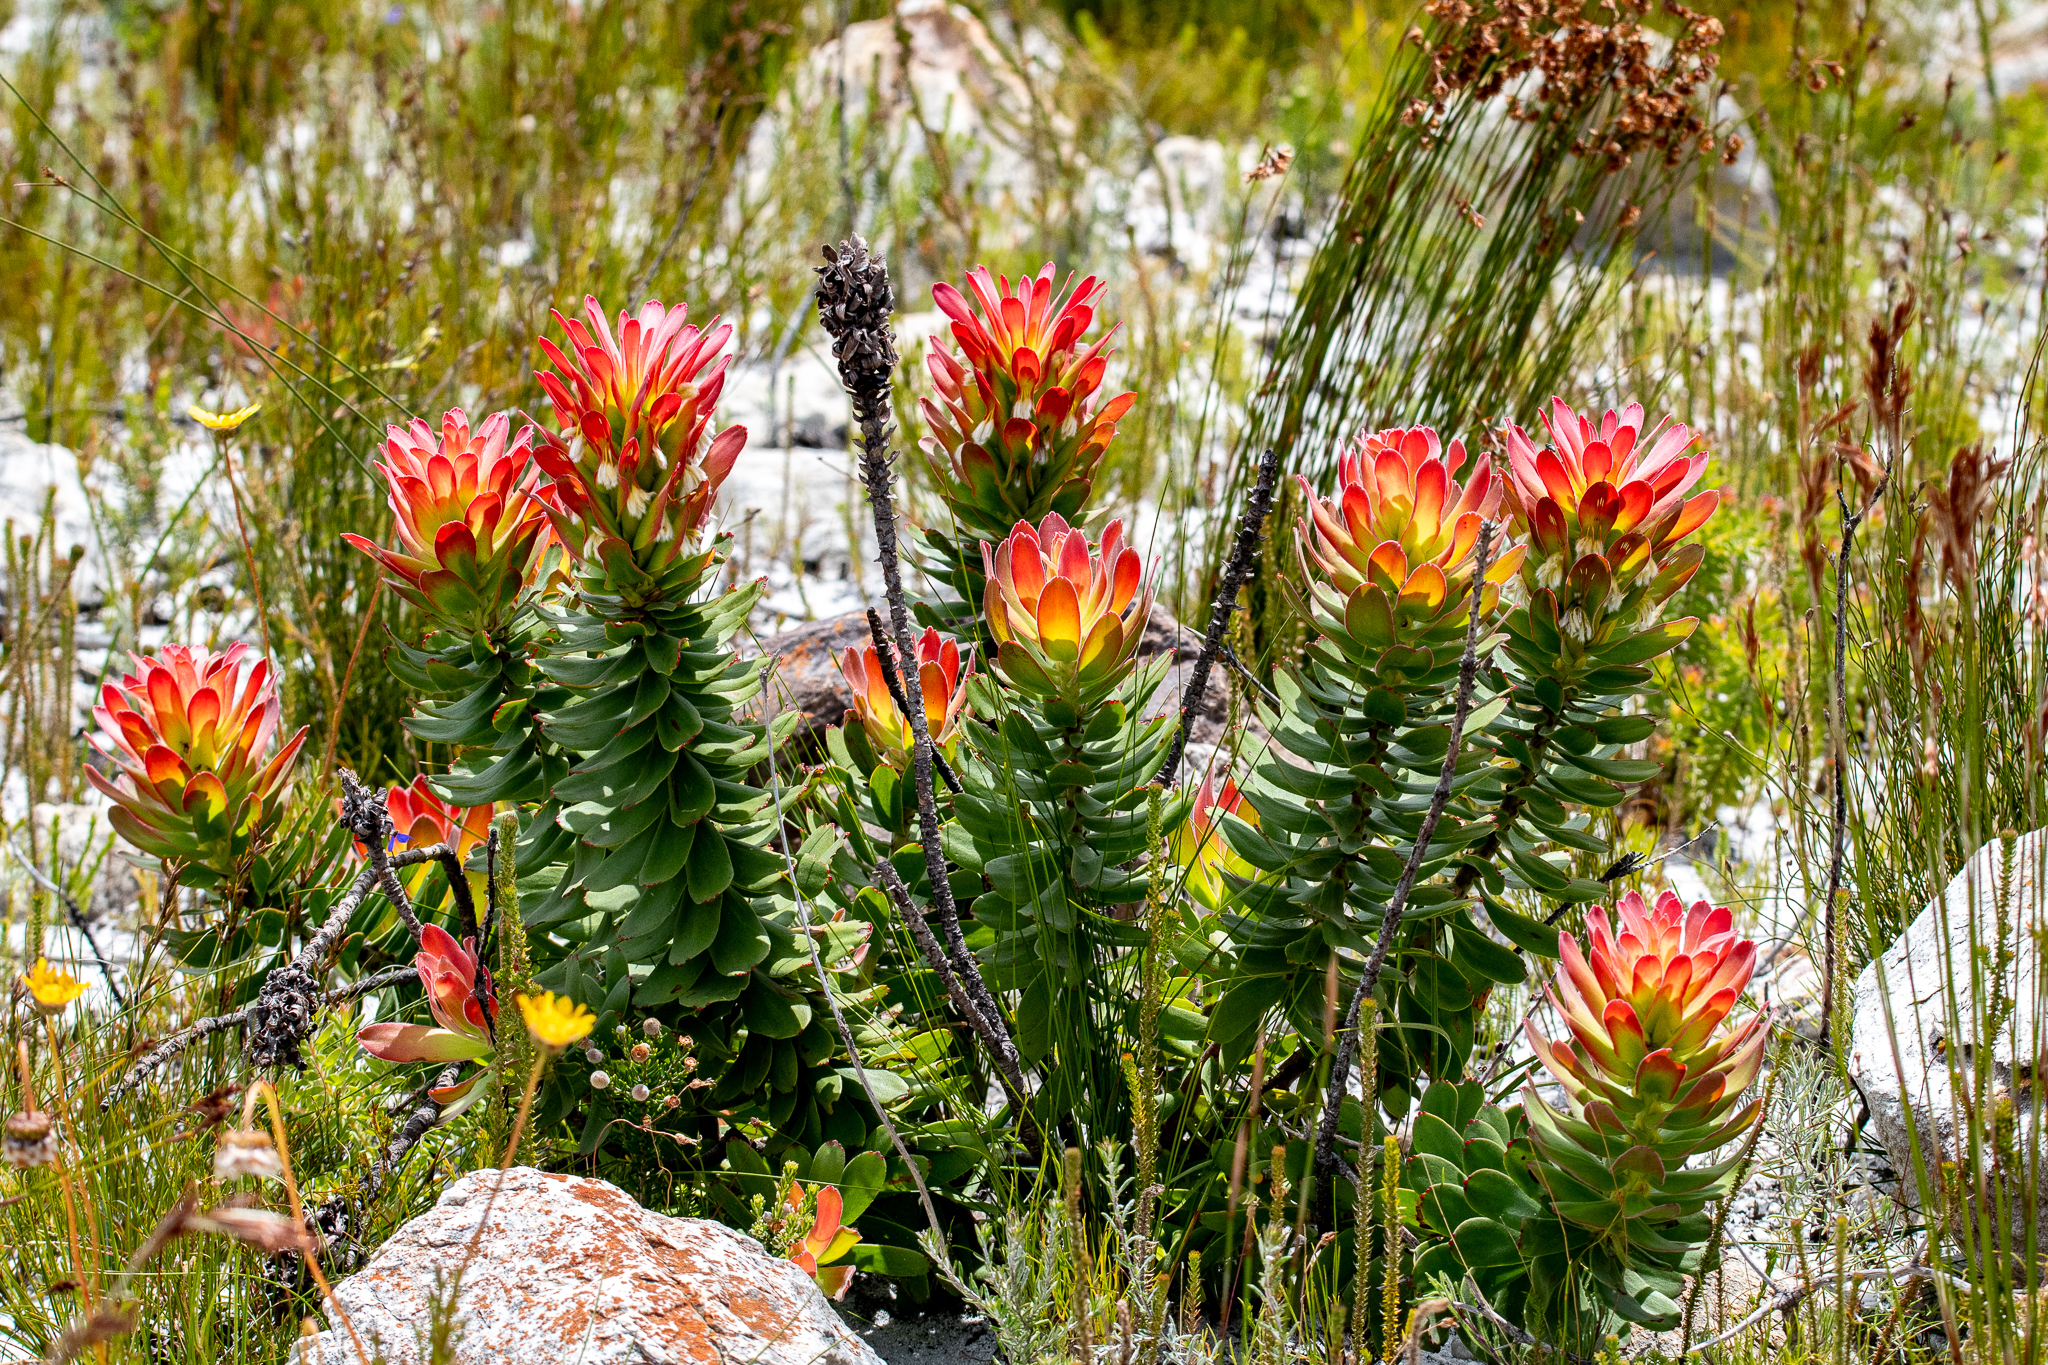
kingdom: Plantae
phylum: Tracheophyta
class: Magnoliopsida
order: Proteales
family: Proteaceae
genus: Mimetes
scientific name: Mimetes cucullatus
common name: Common pagoda
